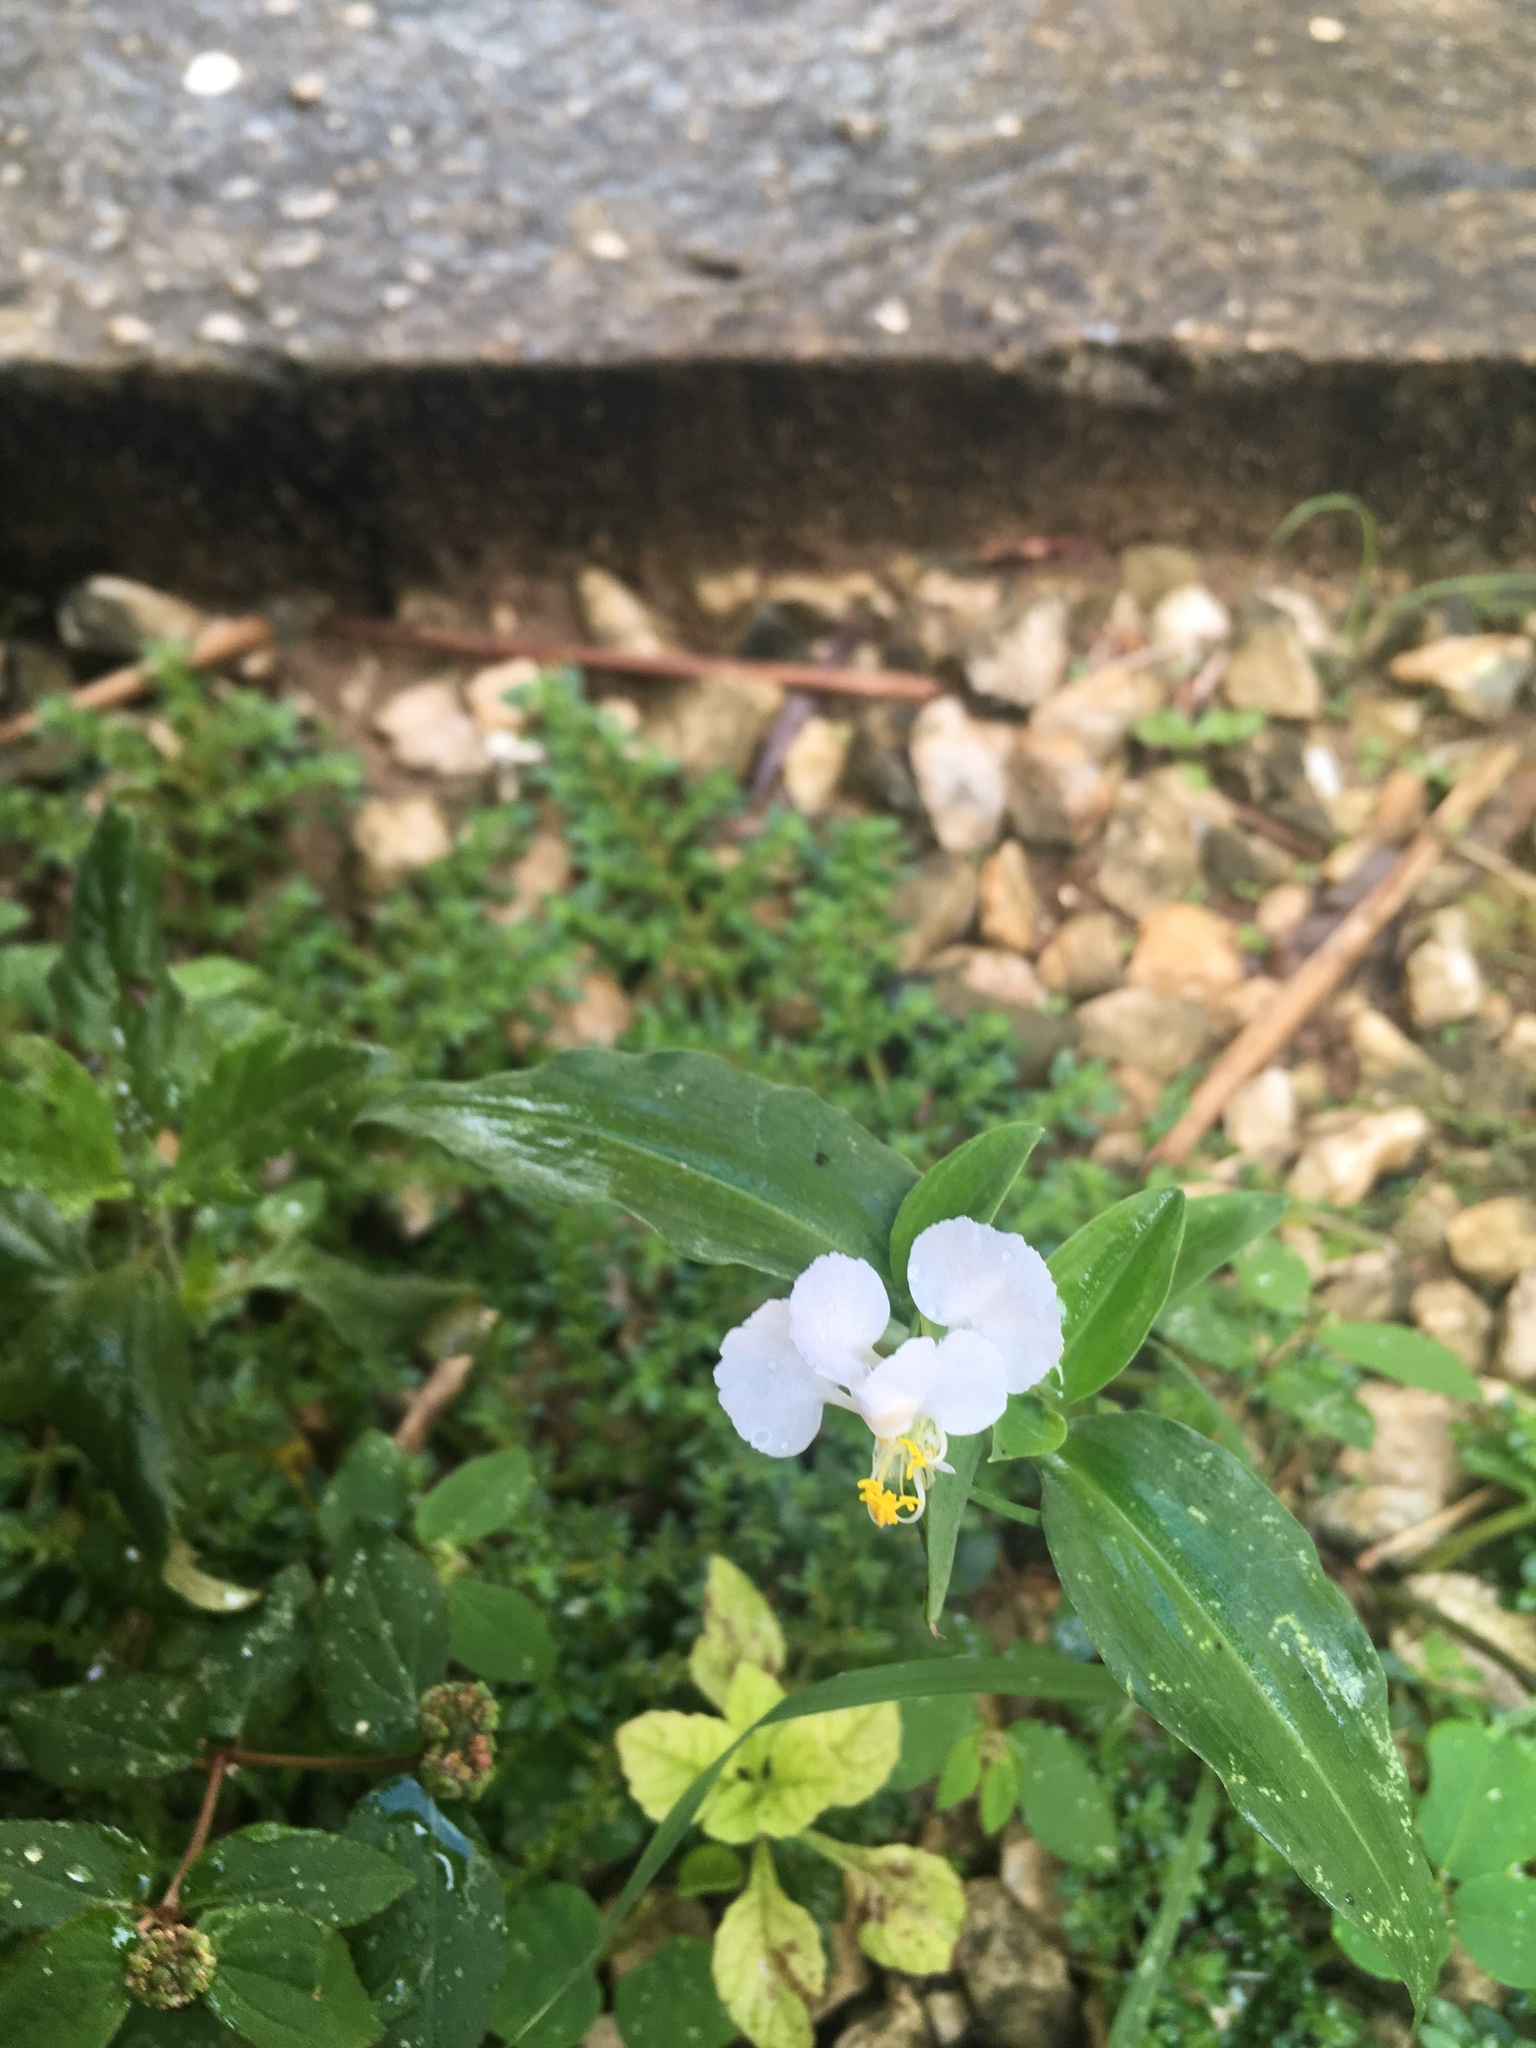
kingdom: Plantae
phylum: Tracheophyta
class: Liliopsida
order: Commelinales
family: Commelinaceae
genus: Commelina
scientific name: Commelina erecta
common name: Blousel blommetjie
